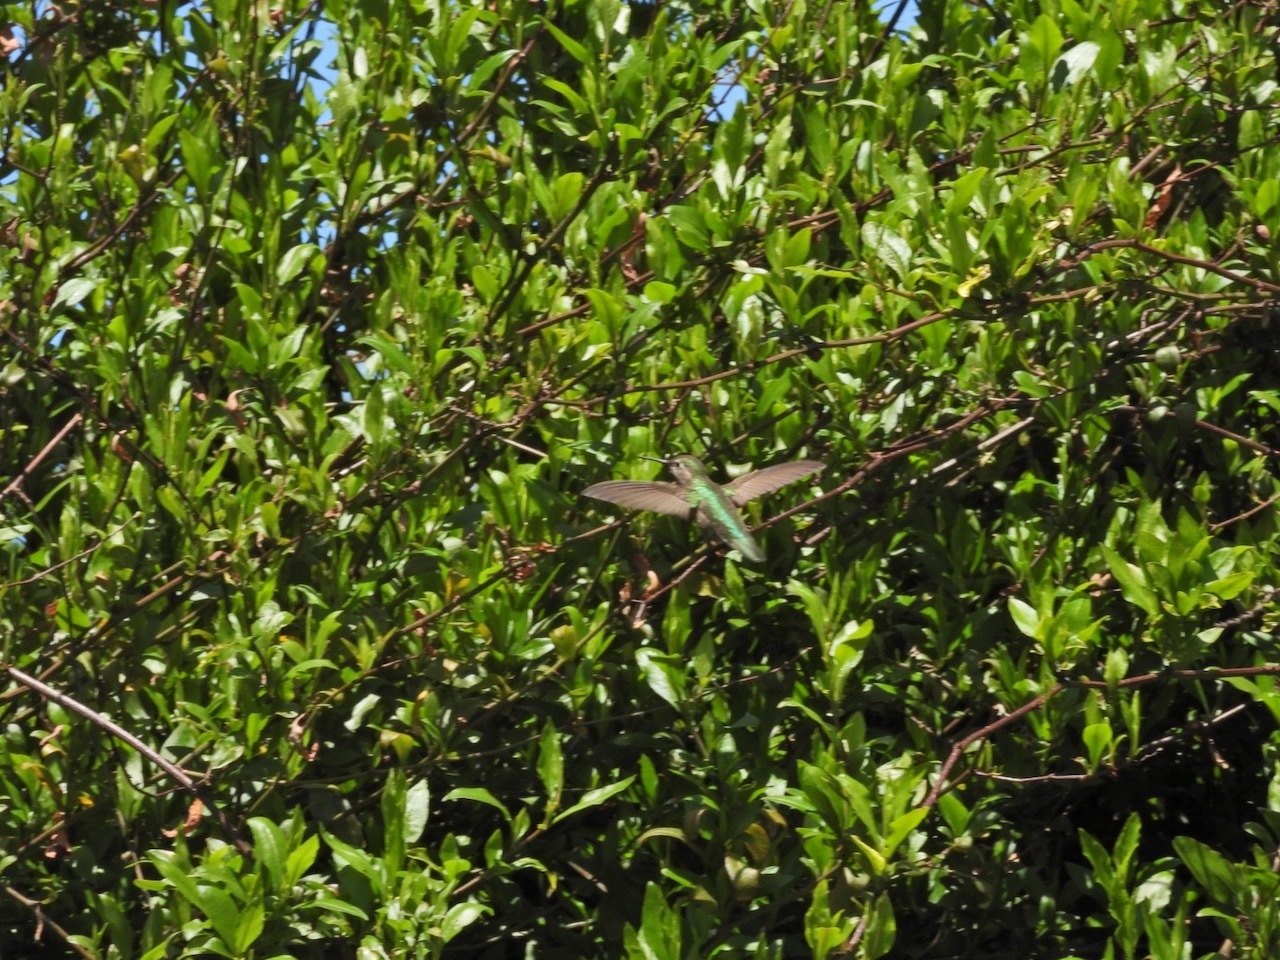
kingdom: Animalia
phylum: Chordata
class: Aves
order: Apodiformes
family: Trochilidae
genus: Calypte
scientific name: Calypte anna
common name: Anna's hummingbird
